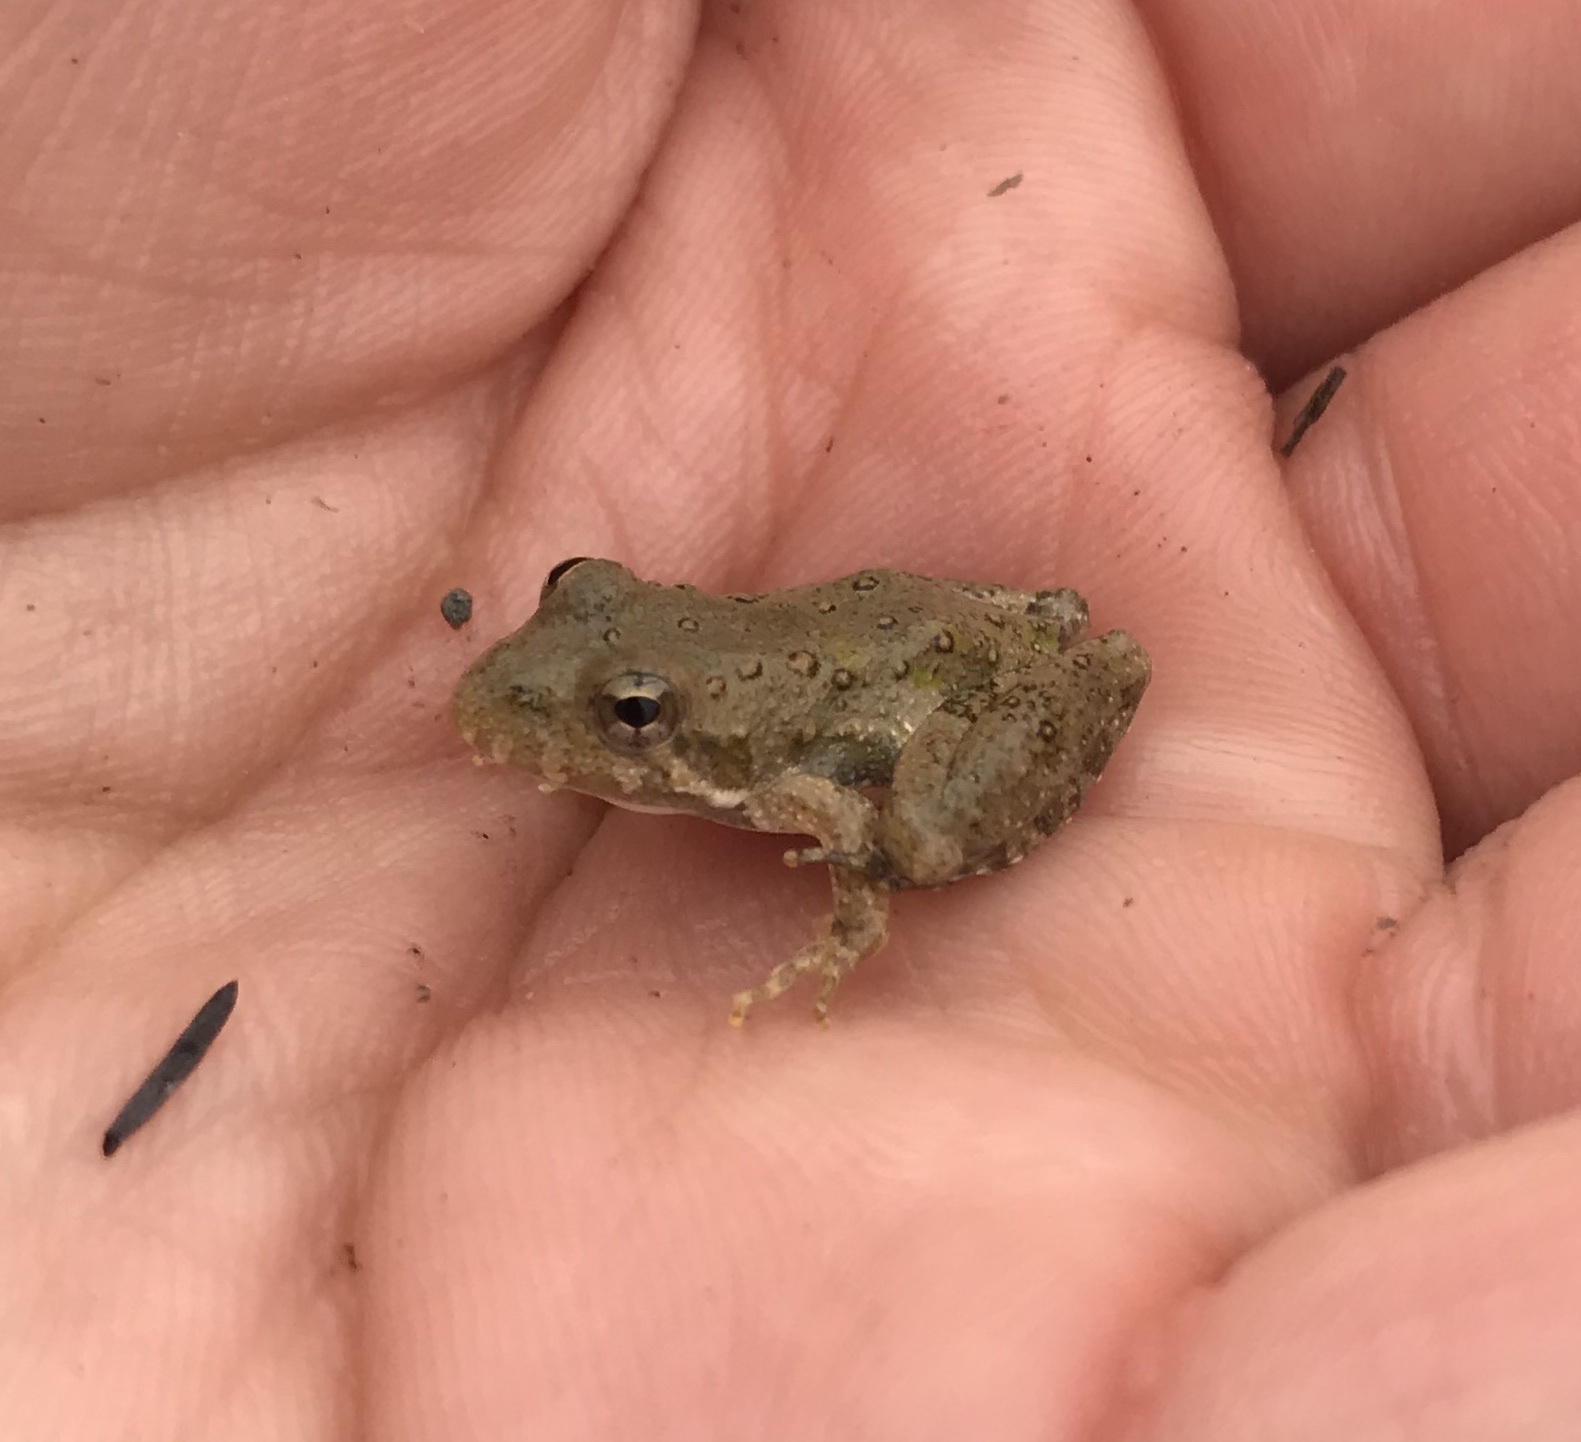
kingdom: Animalia
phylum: Chordata
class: Amphibia
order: Anura
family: Hylidae
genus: Acris
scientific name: Acris blanchardi
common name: Blanchard's cricket frog
